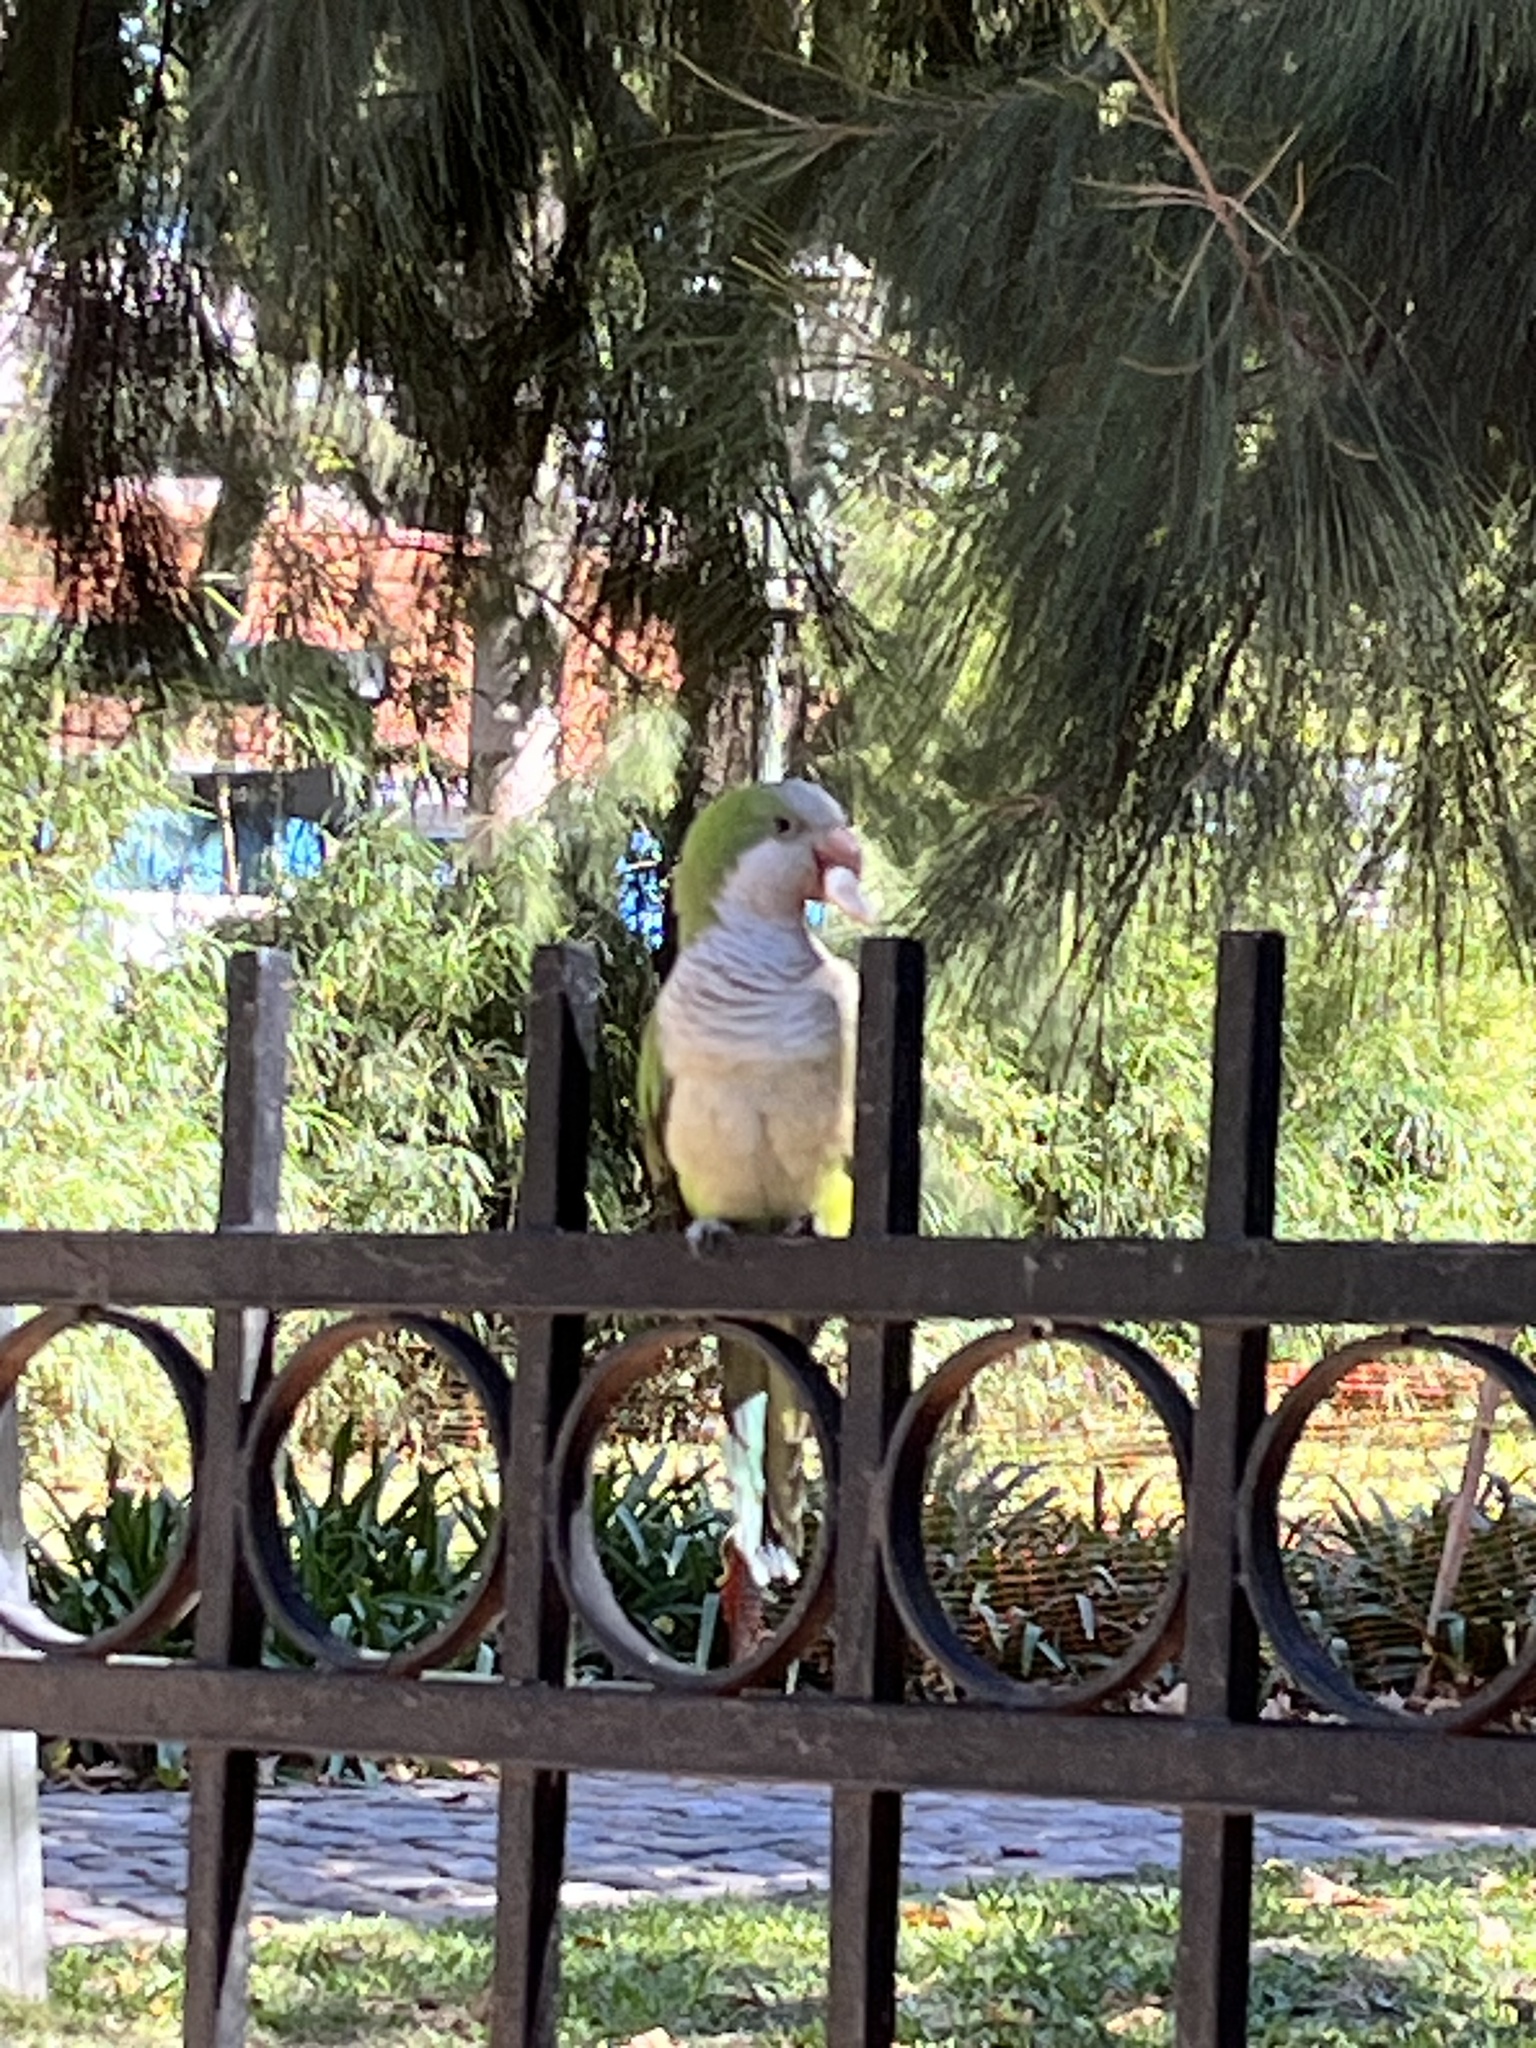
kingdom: Animalia
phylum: Chordata
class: Aves
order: Psittaciformes
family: Psittacidae
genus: Myiopsitta
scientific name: Myiopsitta monachus
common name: Monk parakeet
